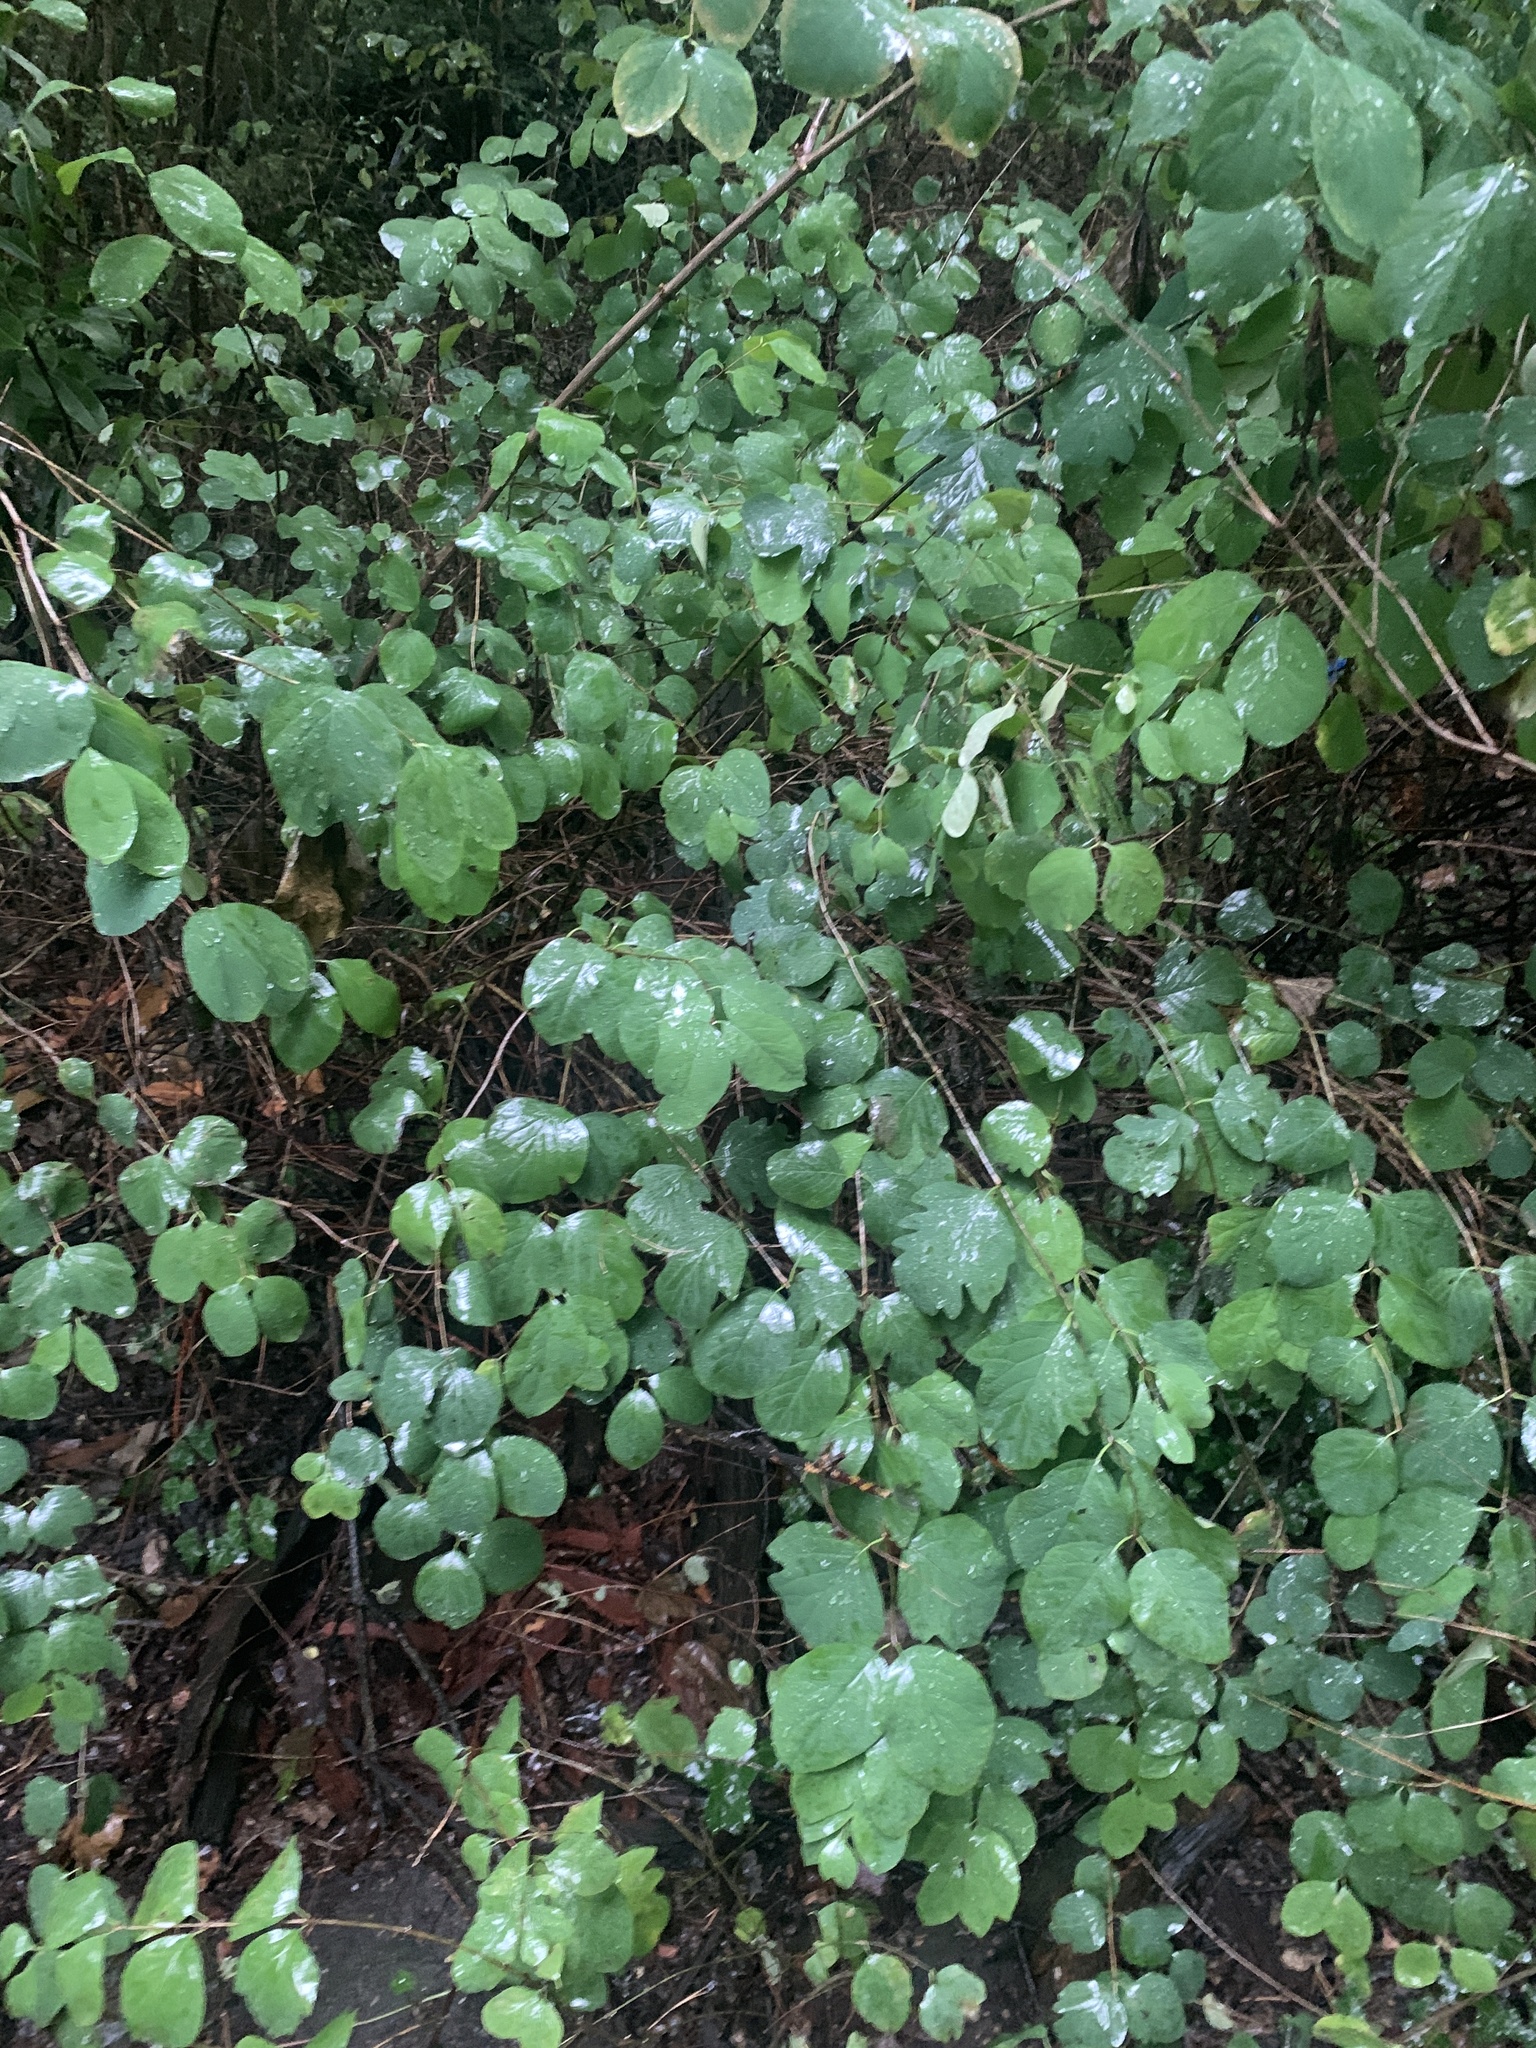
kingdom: Plantae
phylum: Tracheophyta
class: Magnoliopsida
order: Dipsacales
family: Caprifoliaceae
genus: Symphoricarpos
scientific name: Symphoricarpos albus
